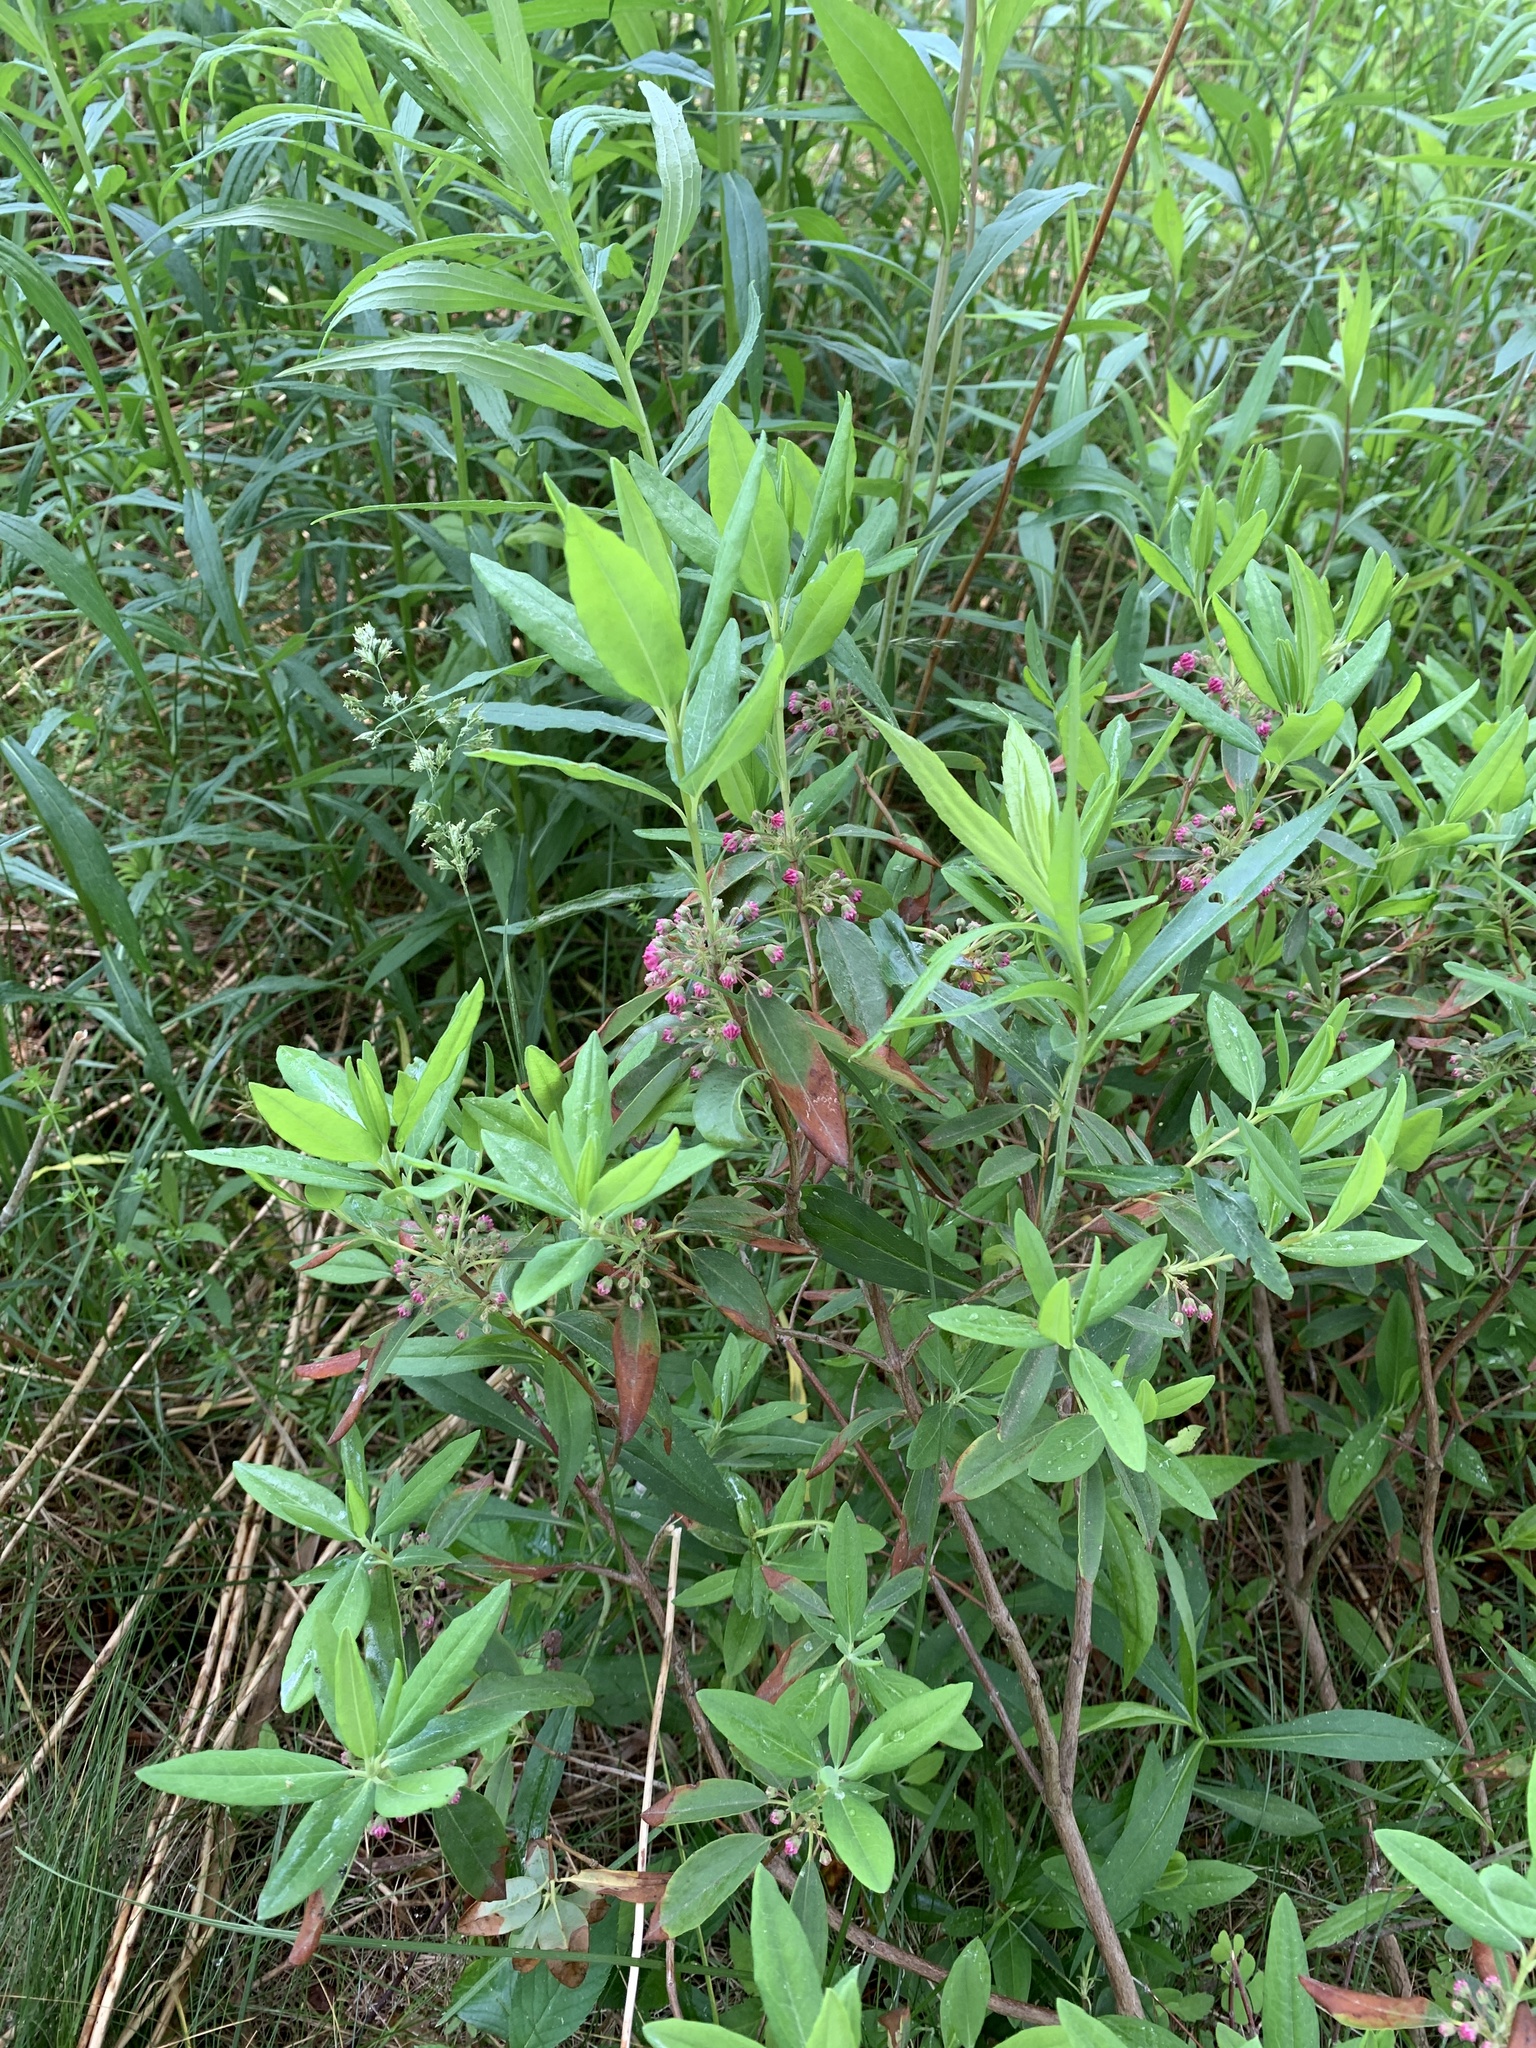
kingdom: Plantae
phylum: Tracheophyta
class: Magnoliopsida
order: Ericales
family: Ericaceae
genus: Kalmia
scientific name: Kalmia angustifolia
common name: Sheep-laurel
